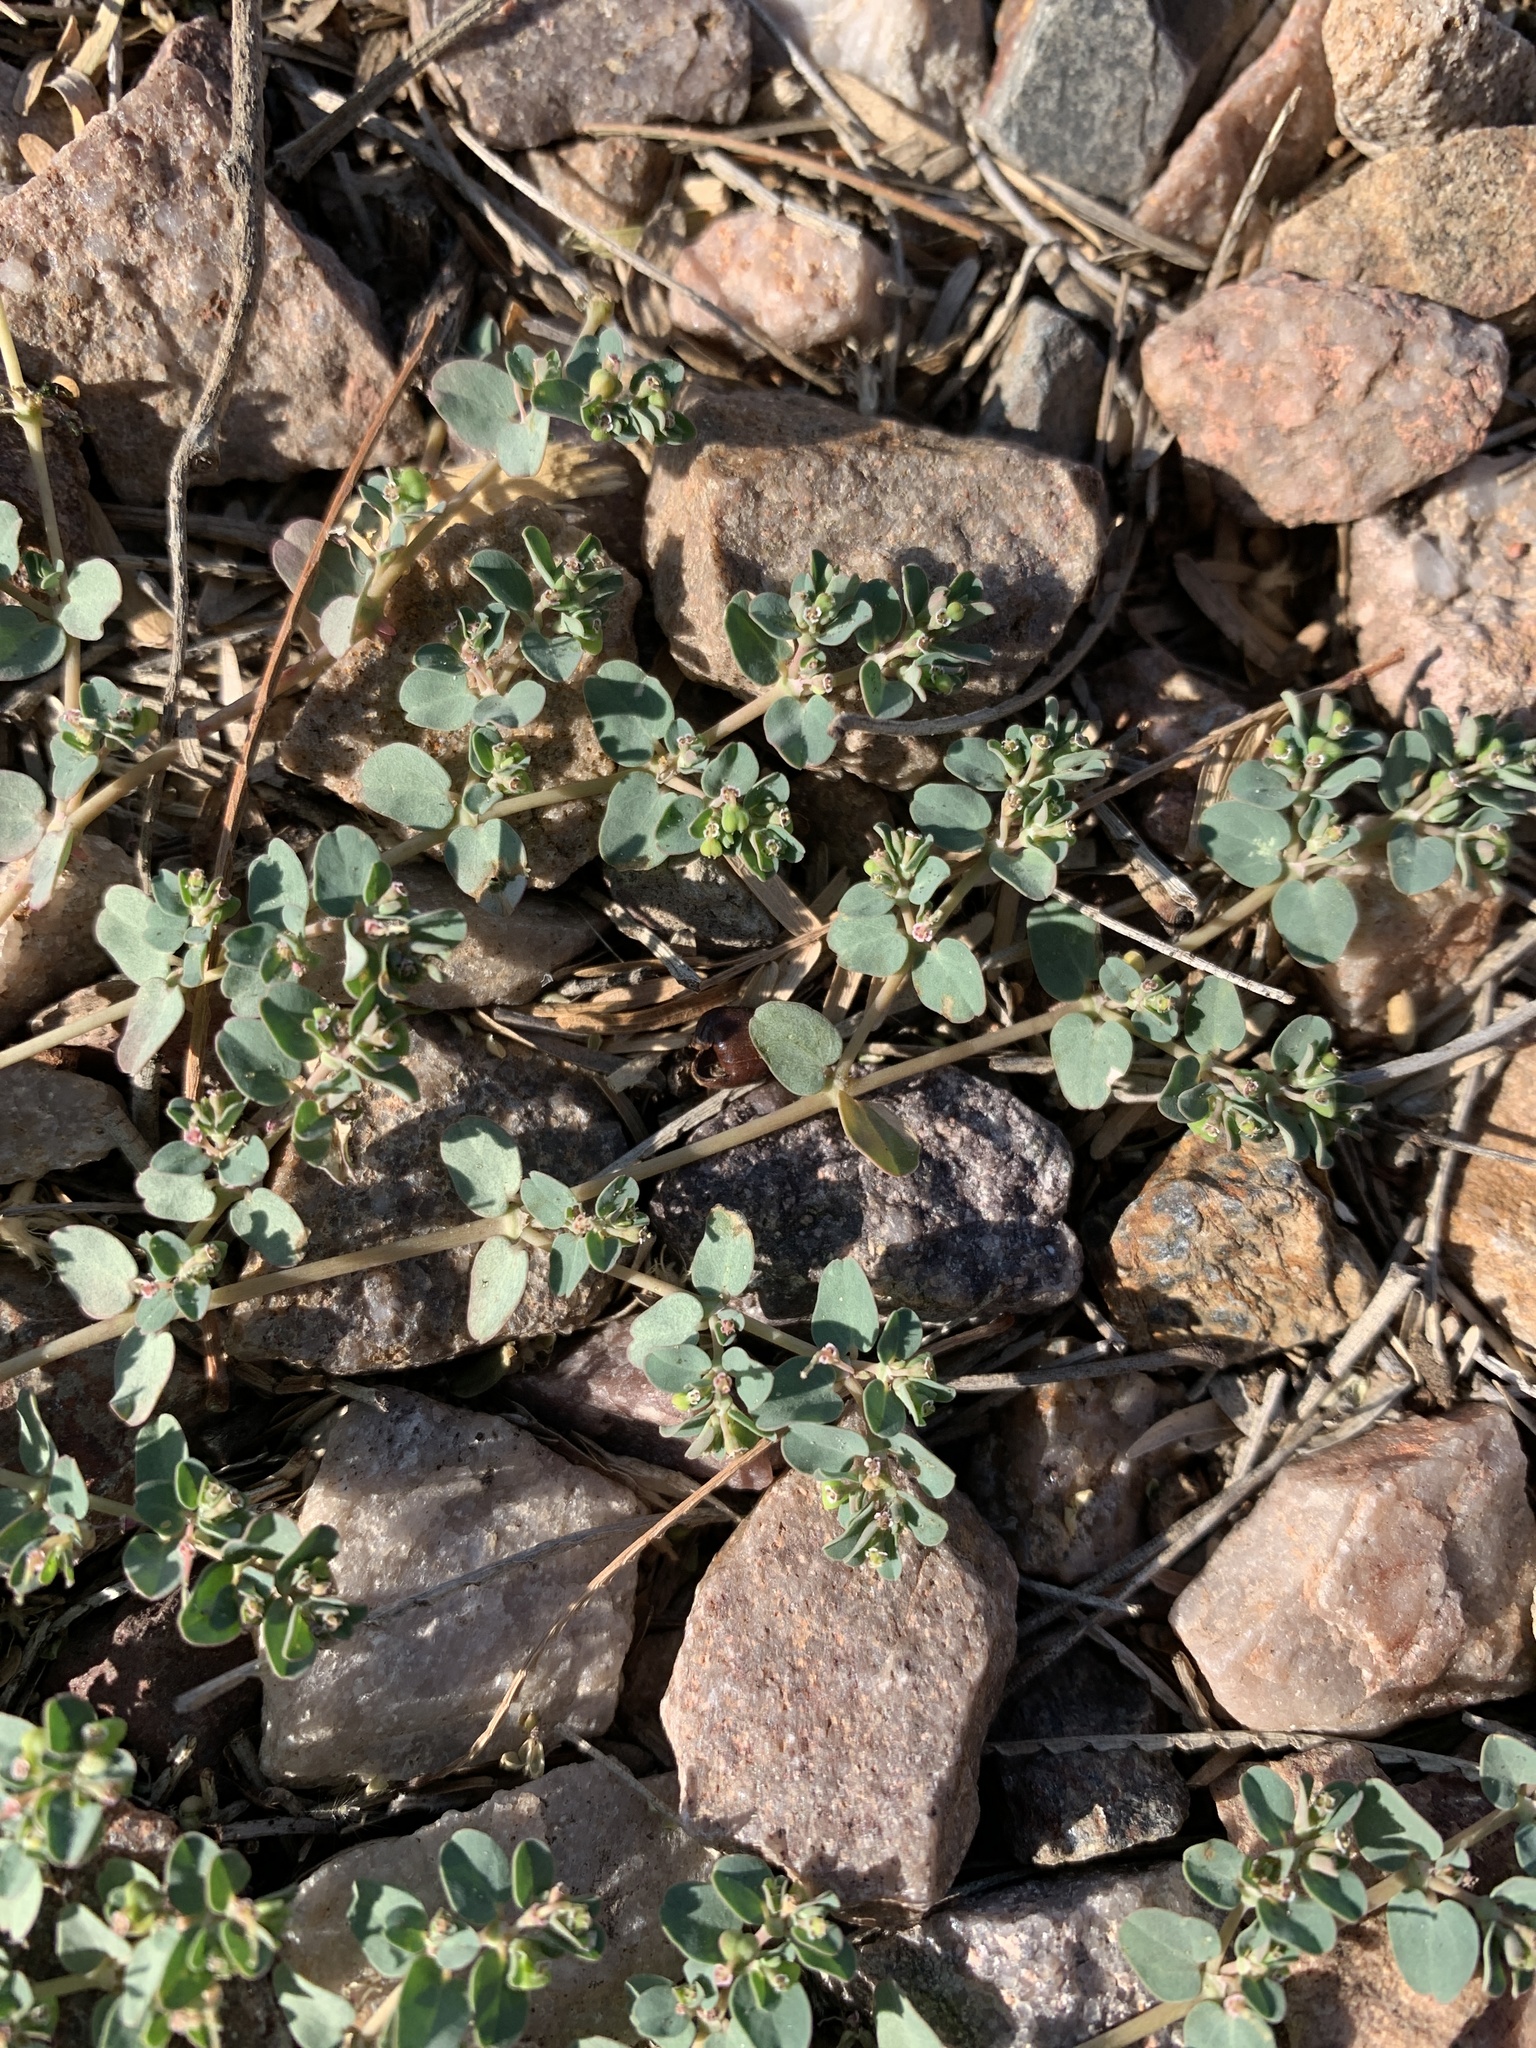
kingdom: Plantae
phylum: Tracheophyta
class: Magnoliopsida
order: Malpighiales
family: Euphorbiaceae
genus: Euphorbia
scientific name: Euphorbia serpens
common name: Matted sandmat
